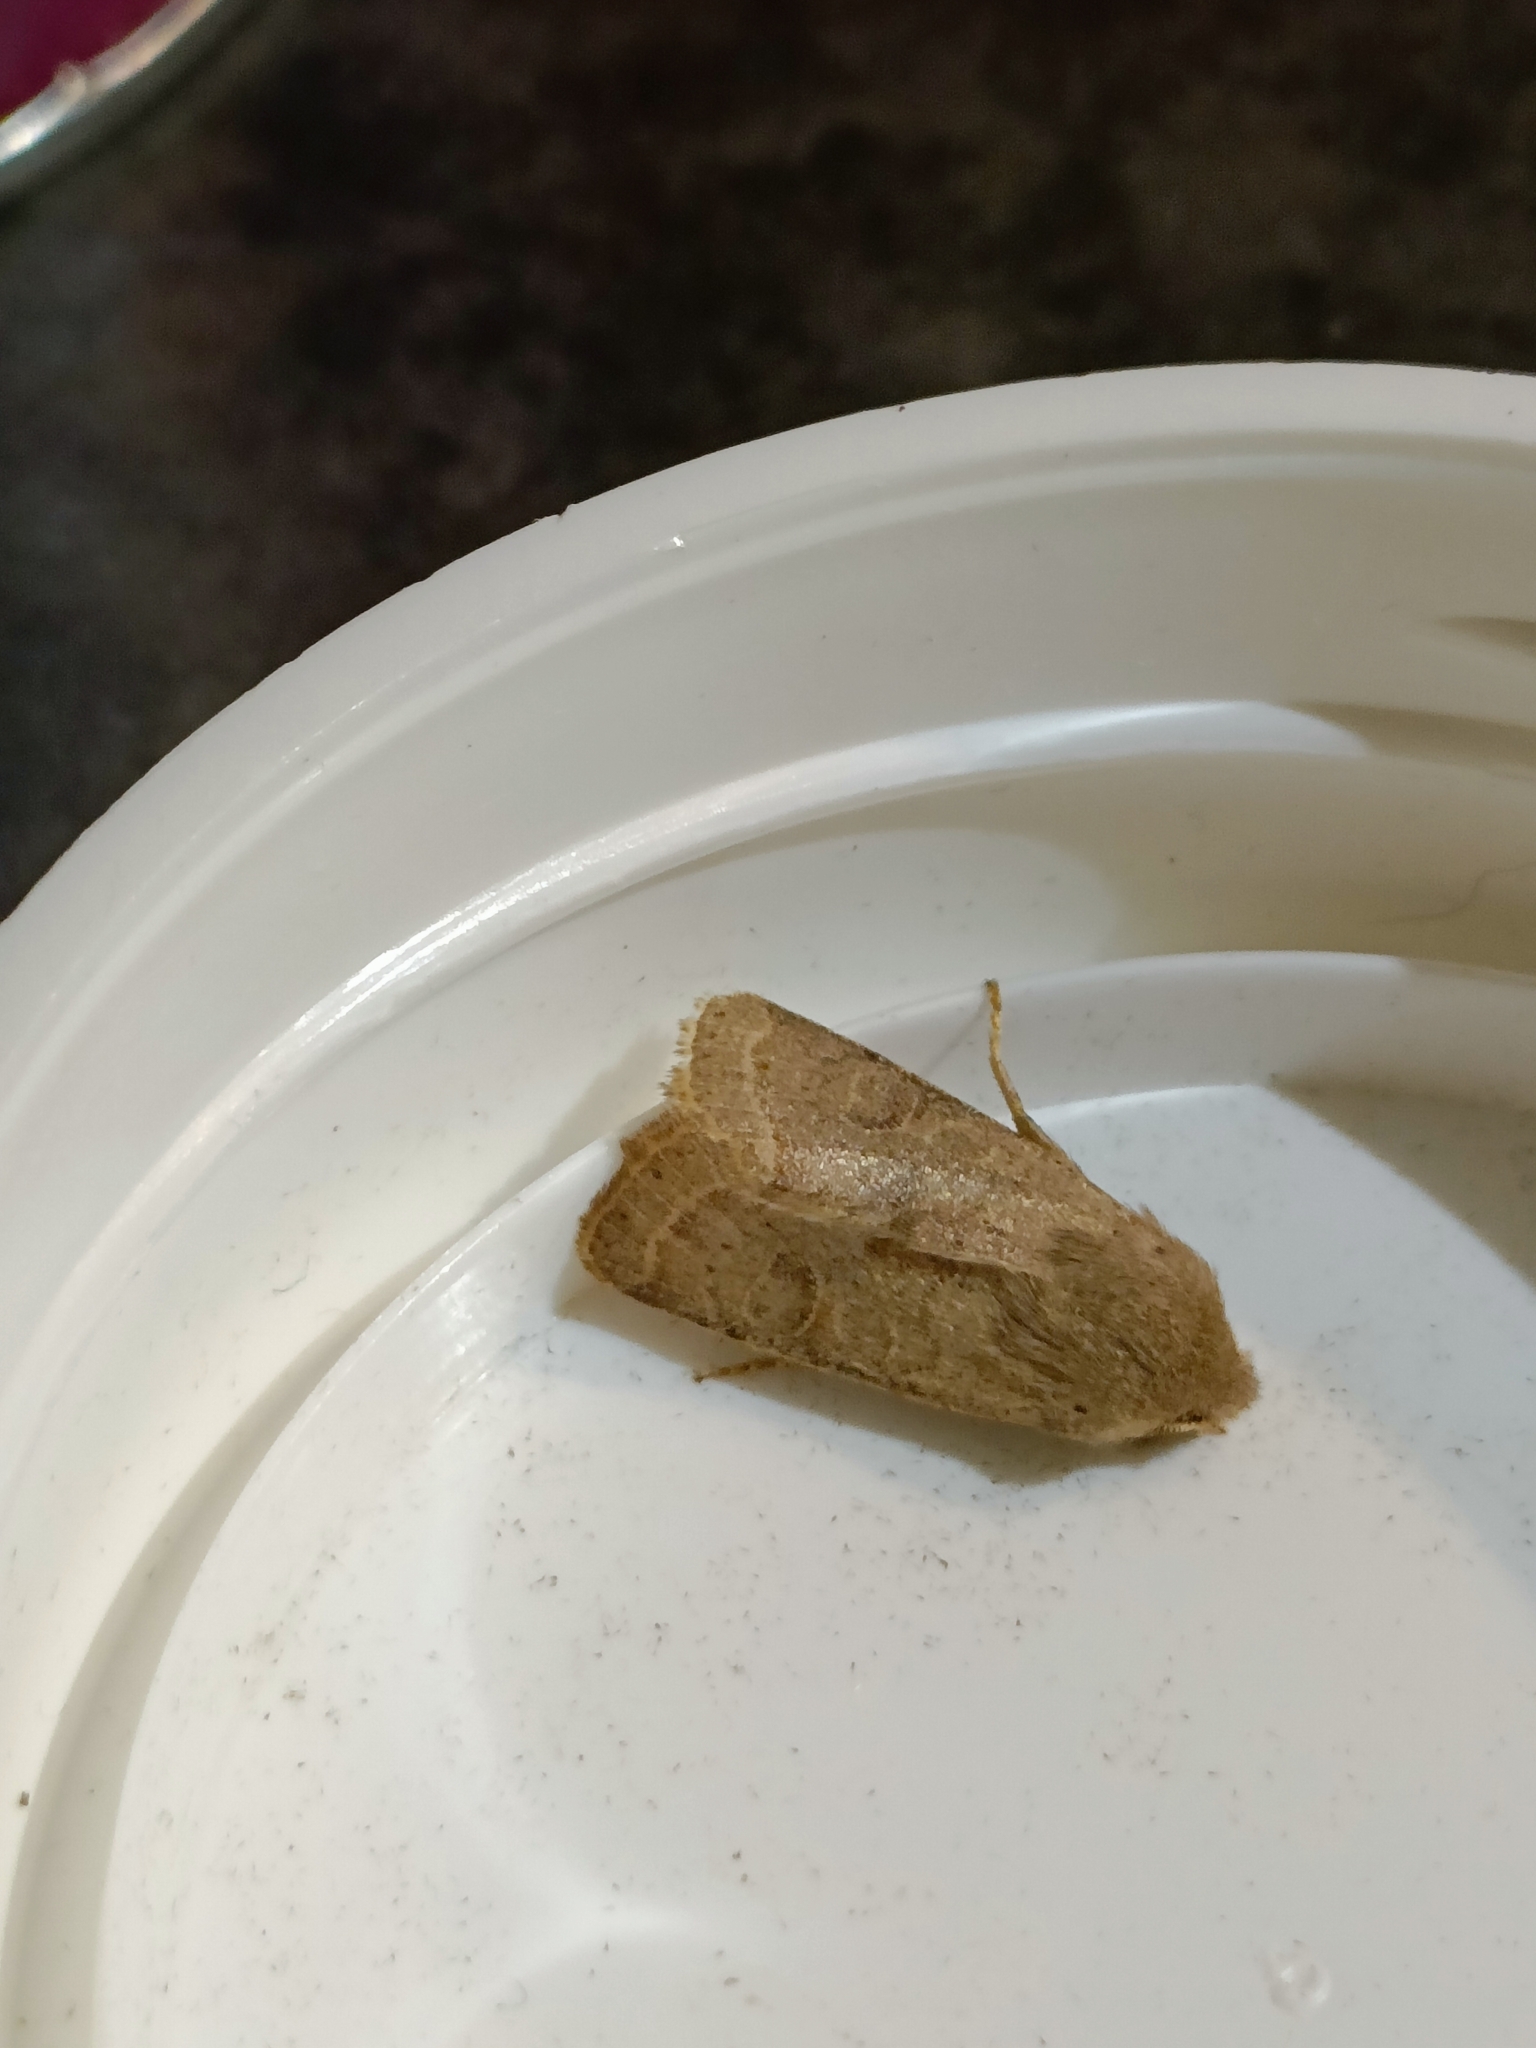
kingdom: Animalia
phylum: Arthropoda
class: Insecta
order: Lepidoptera
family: Noctuidae
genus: Orthosia
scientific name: Orthosia cerasi
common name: Common quaker
